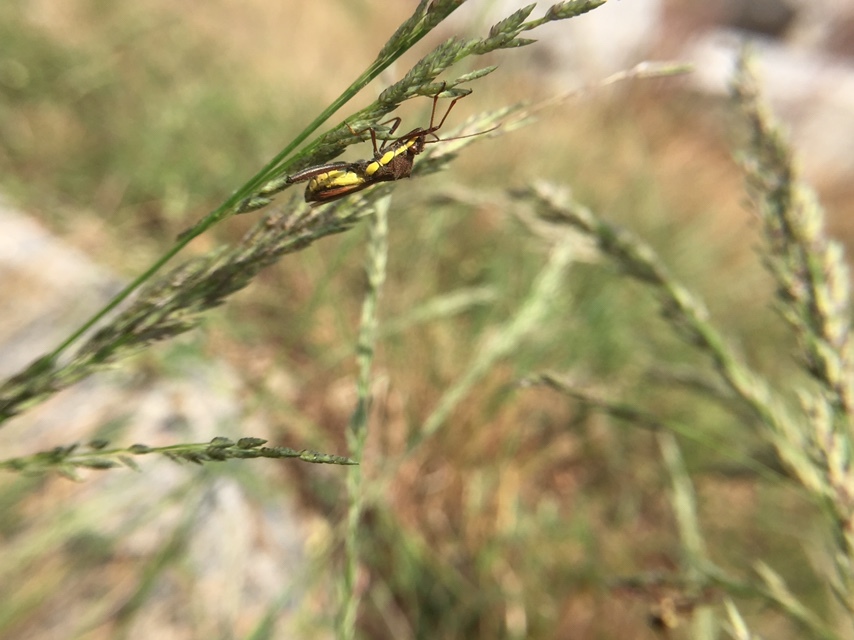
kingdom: Animalia
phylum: Arthropoda
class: Insecta
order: Hemiptera
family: Alydidae
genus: Riptortus
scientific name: Riptortus linearis
